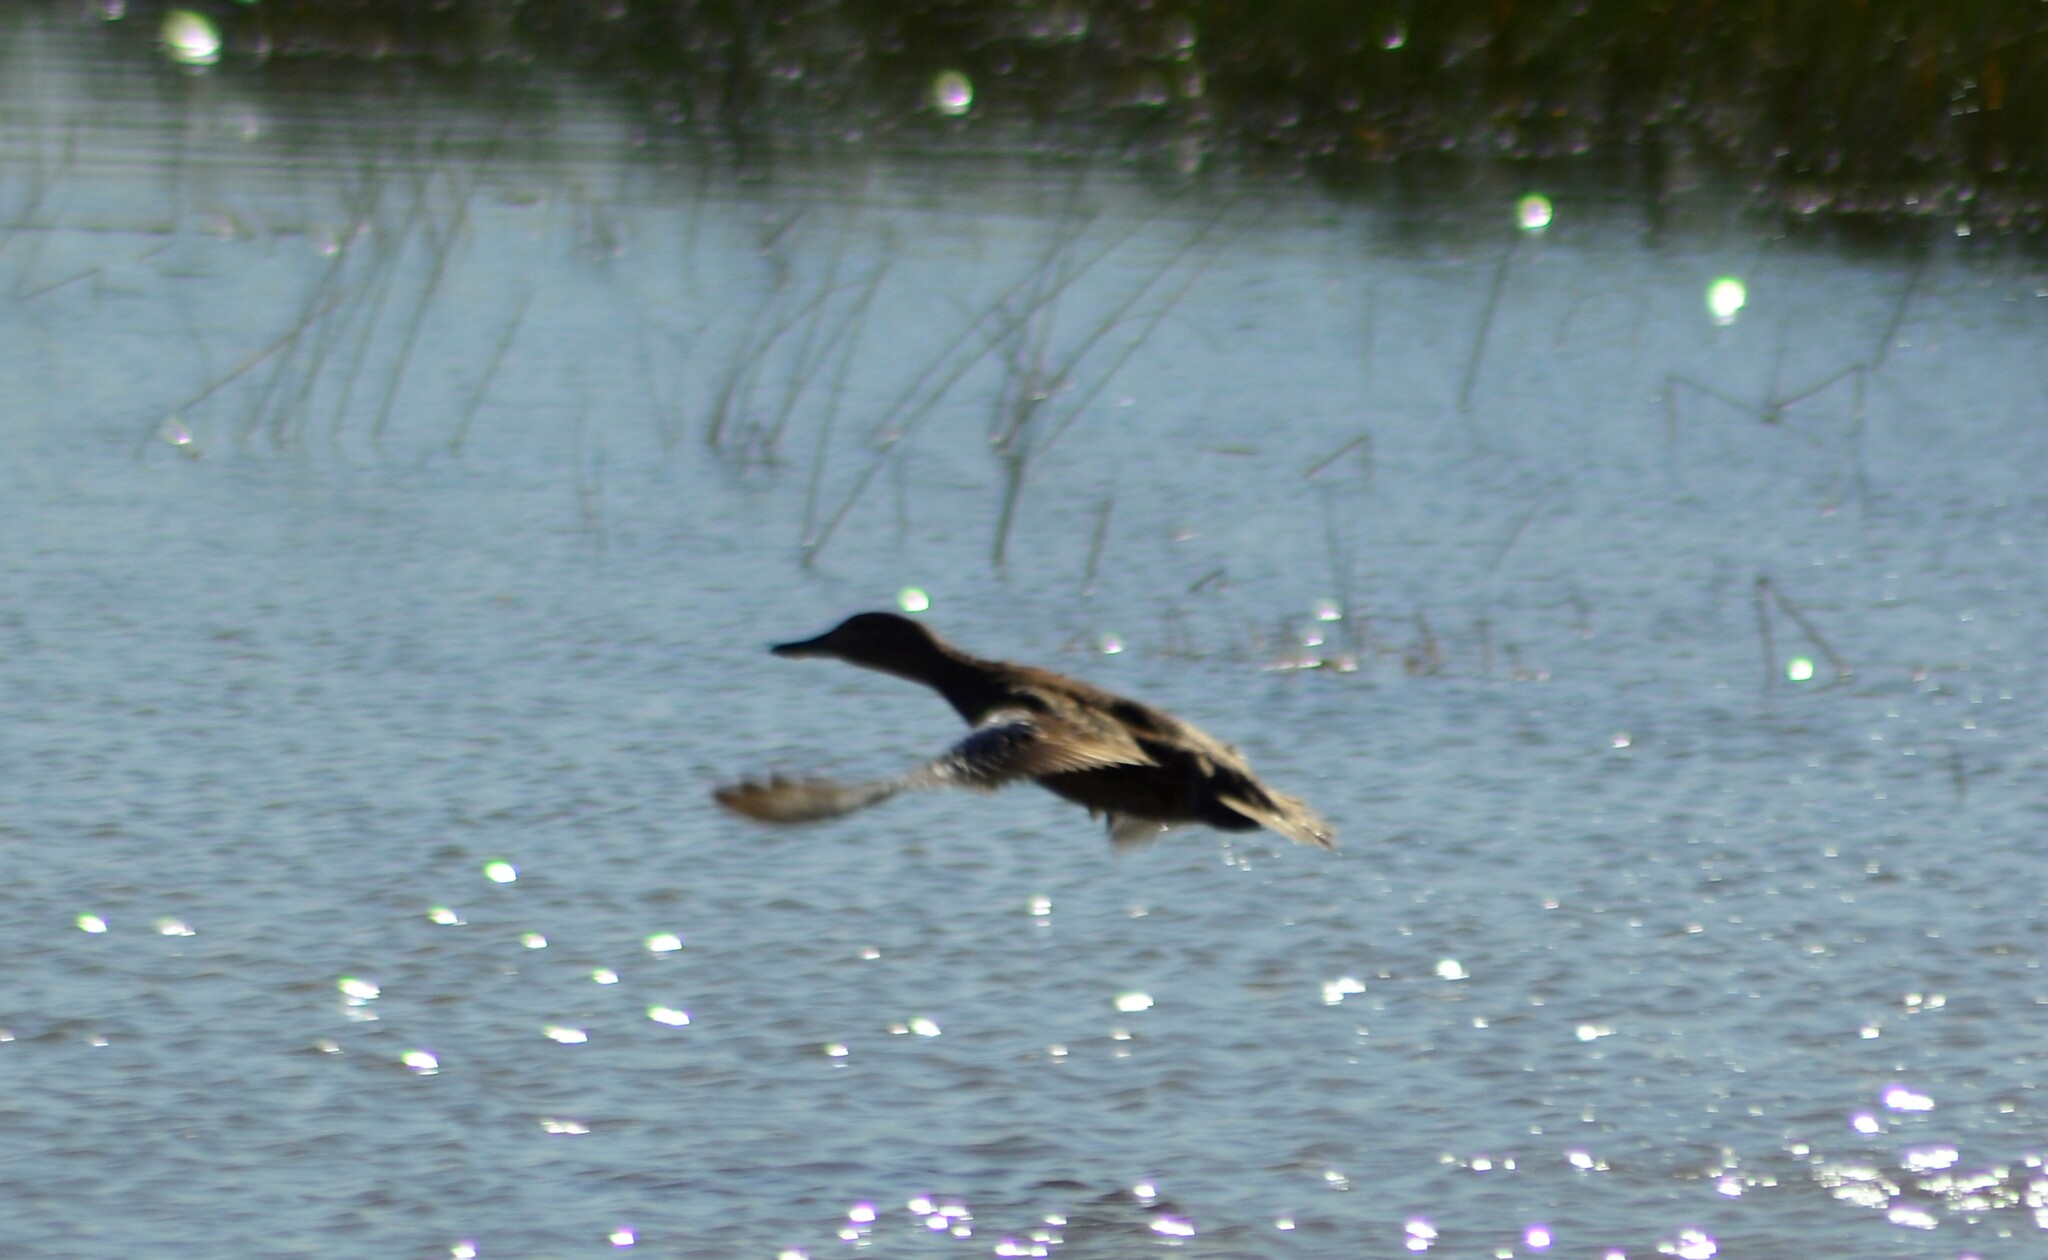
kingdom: Animalia
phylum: Chordata
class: Aves
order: Anseriformes
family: Anatidae
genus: Spatula
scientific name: Spatula cyanoptera
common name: Cinnamon teal
